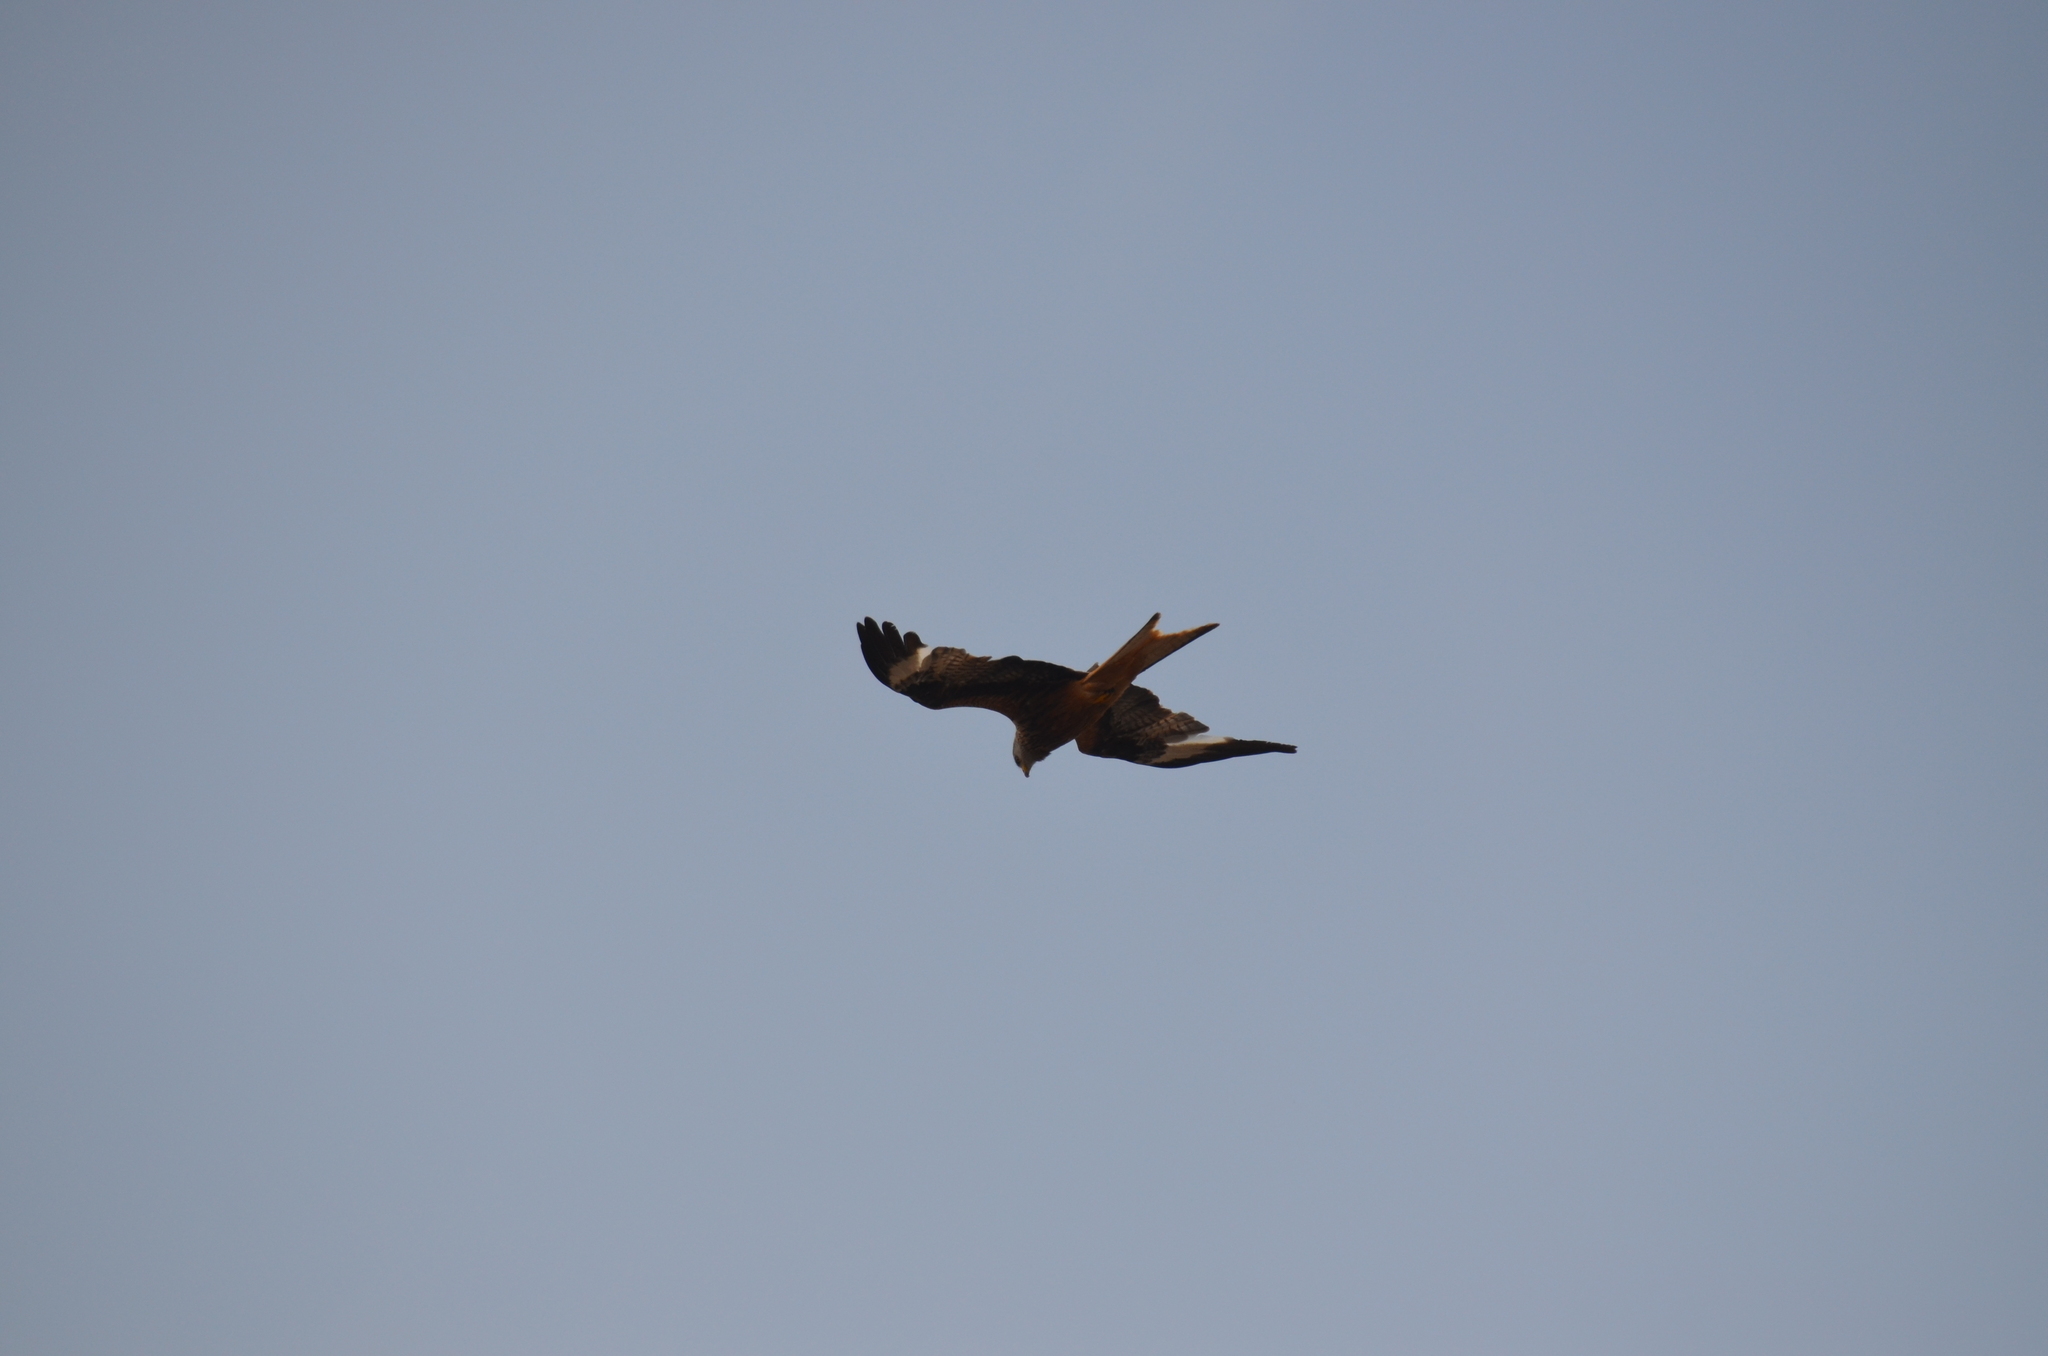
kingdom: Animalia
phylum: Chordata
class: Aves
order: Accipitriformes
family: Accipitridae
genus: Milvus
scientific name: Milvus milvus
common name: Red kite
